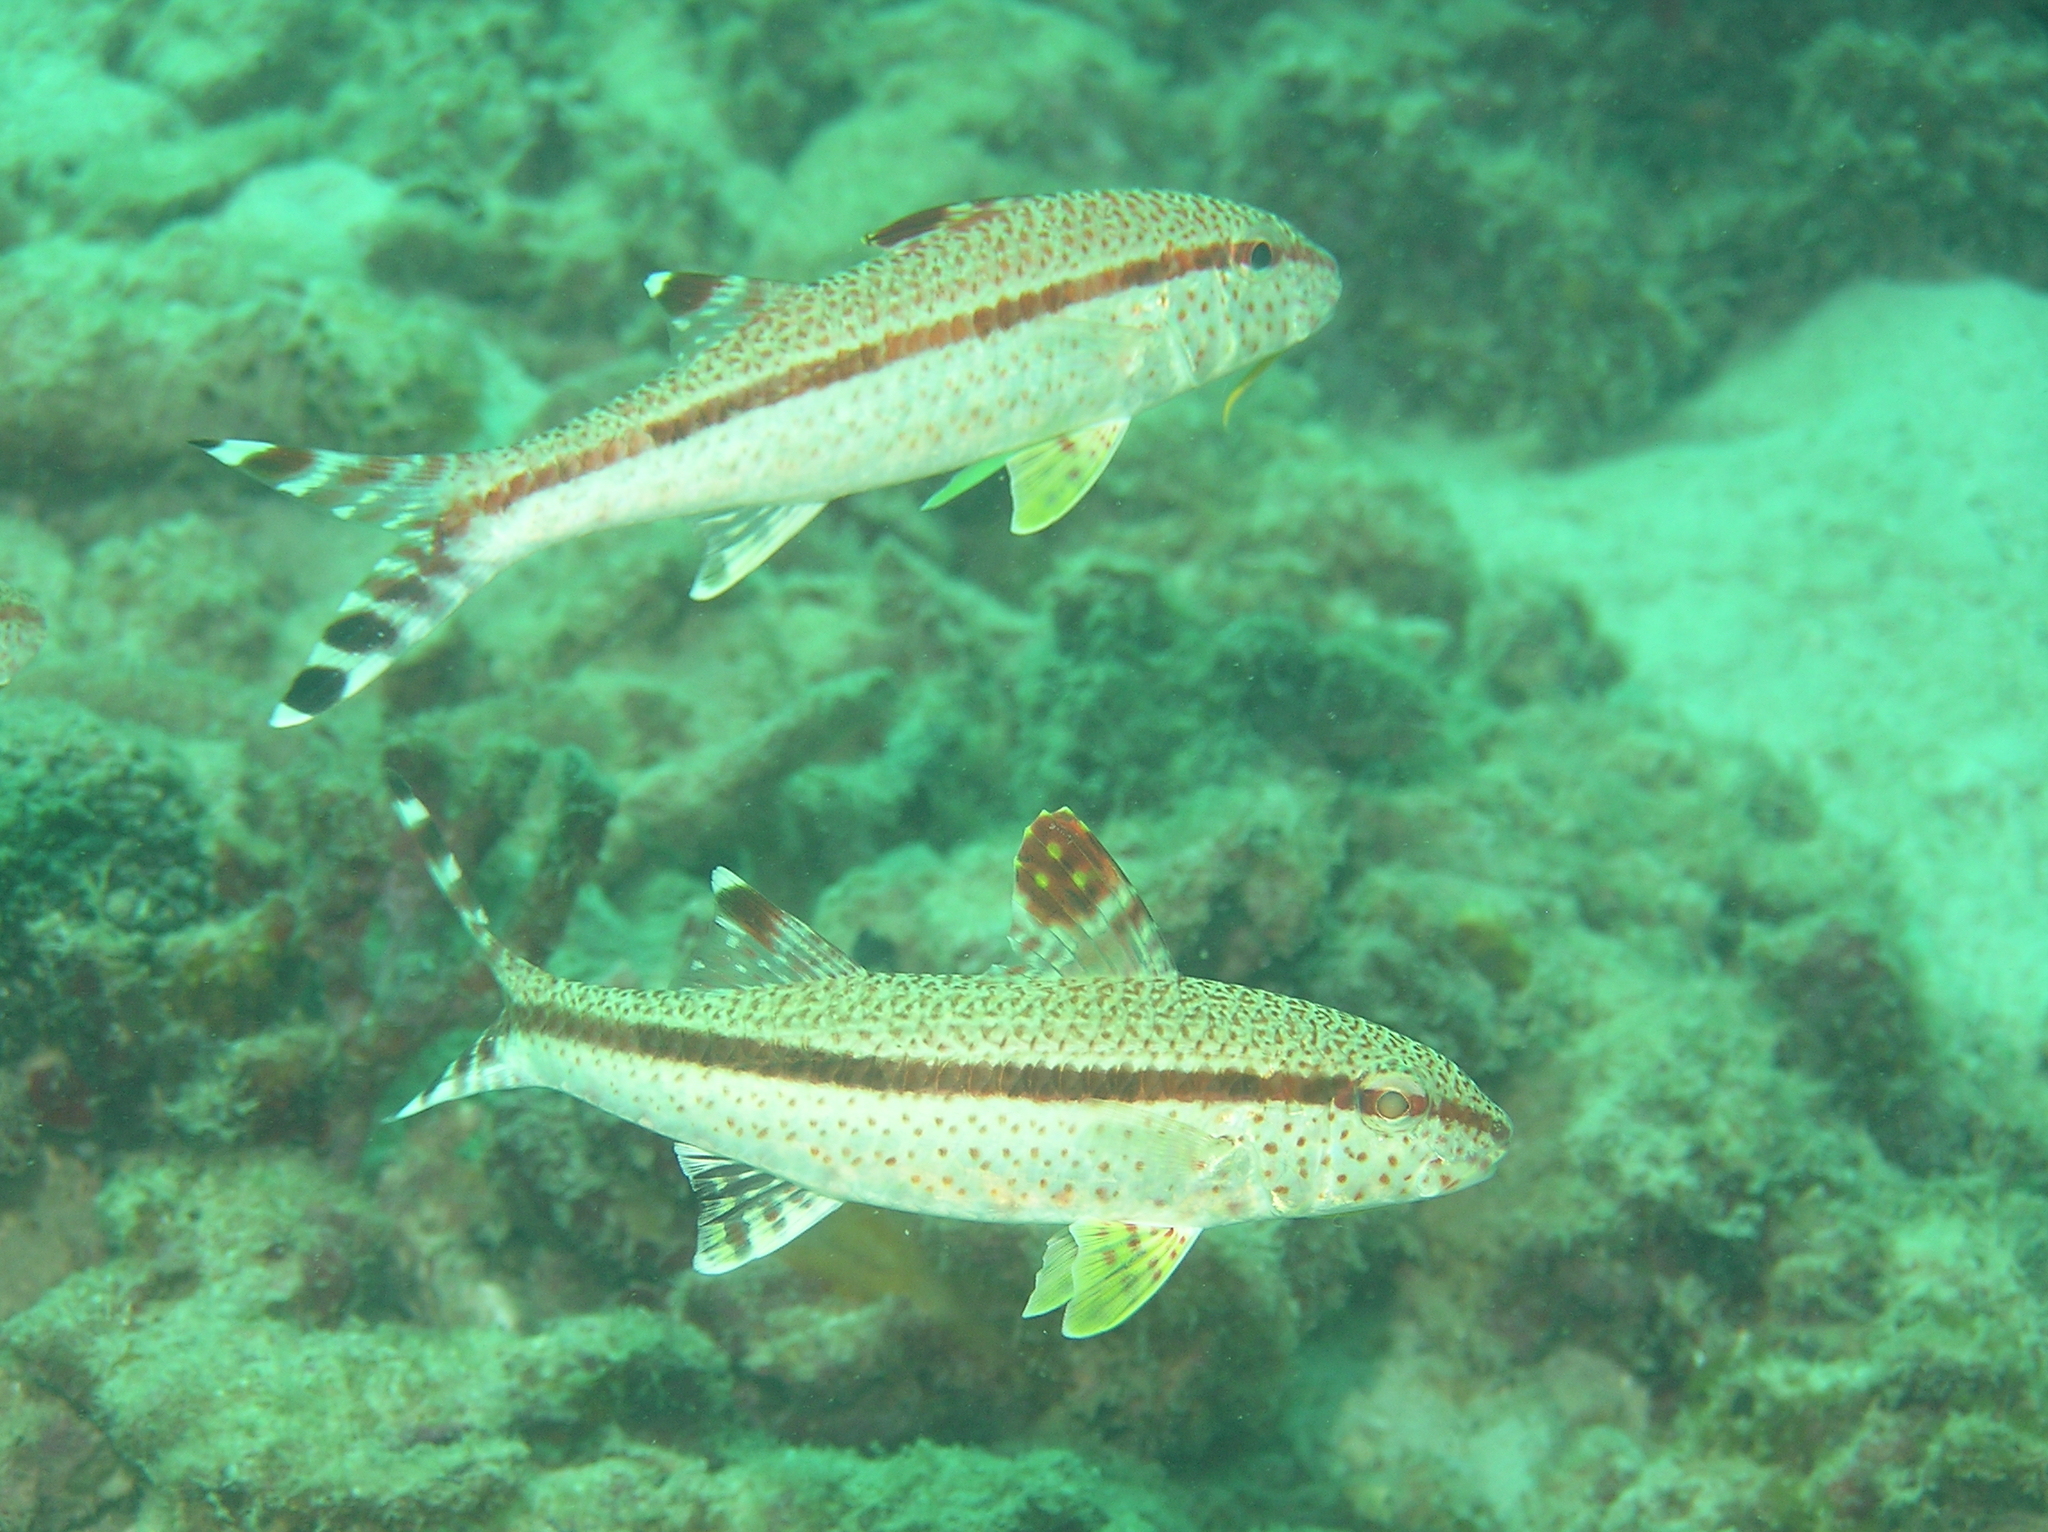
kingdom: Animalia
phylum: Chordata
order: Perciformes
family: Mullidae
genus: Upeneus
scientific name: Upeneus tragula
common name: Freckled goatfish
